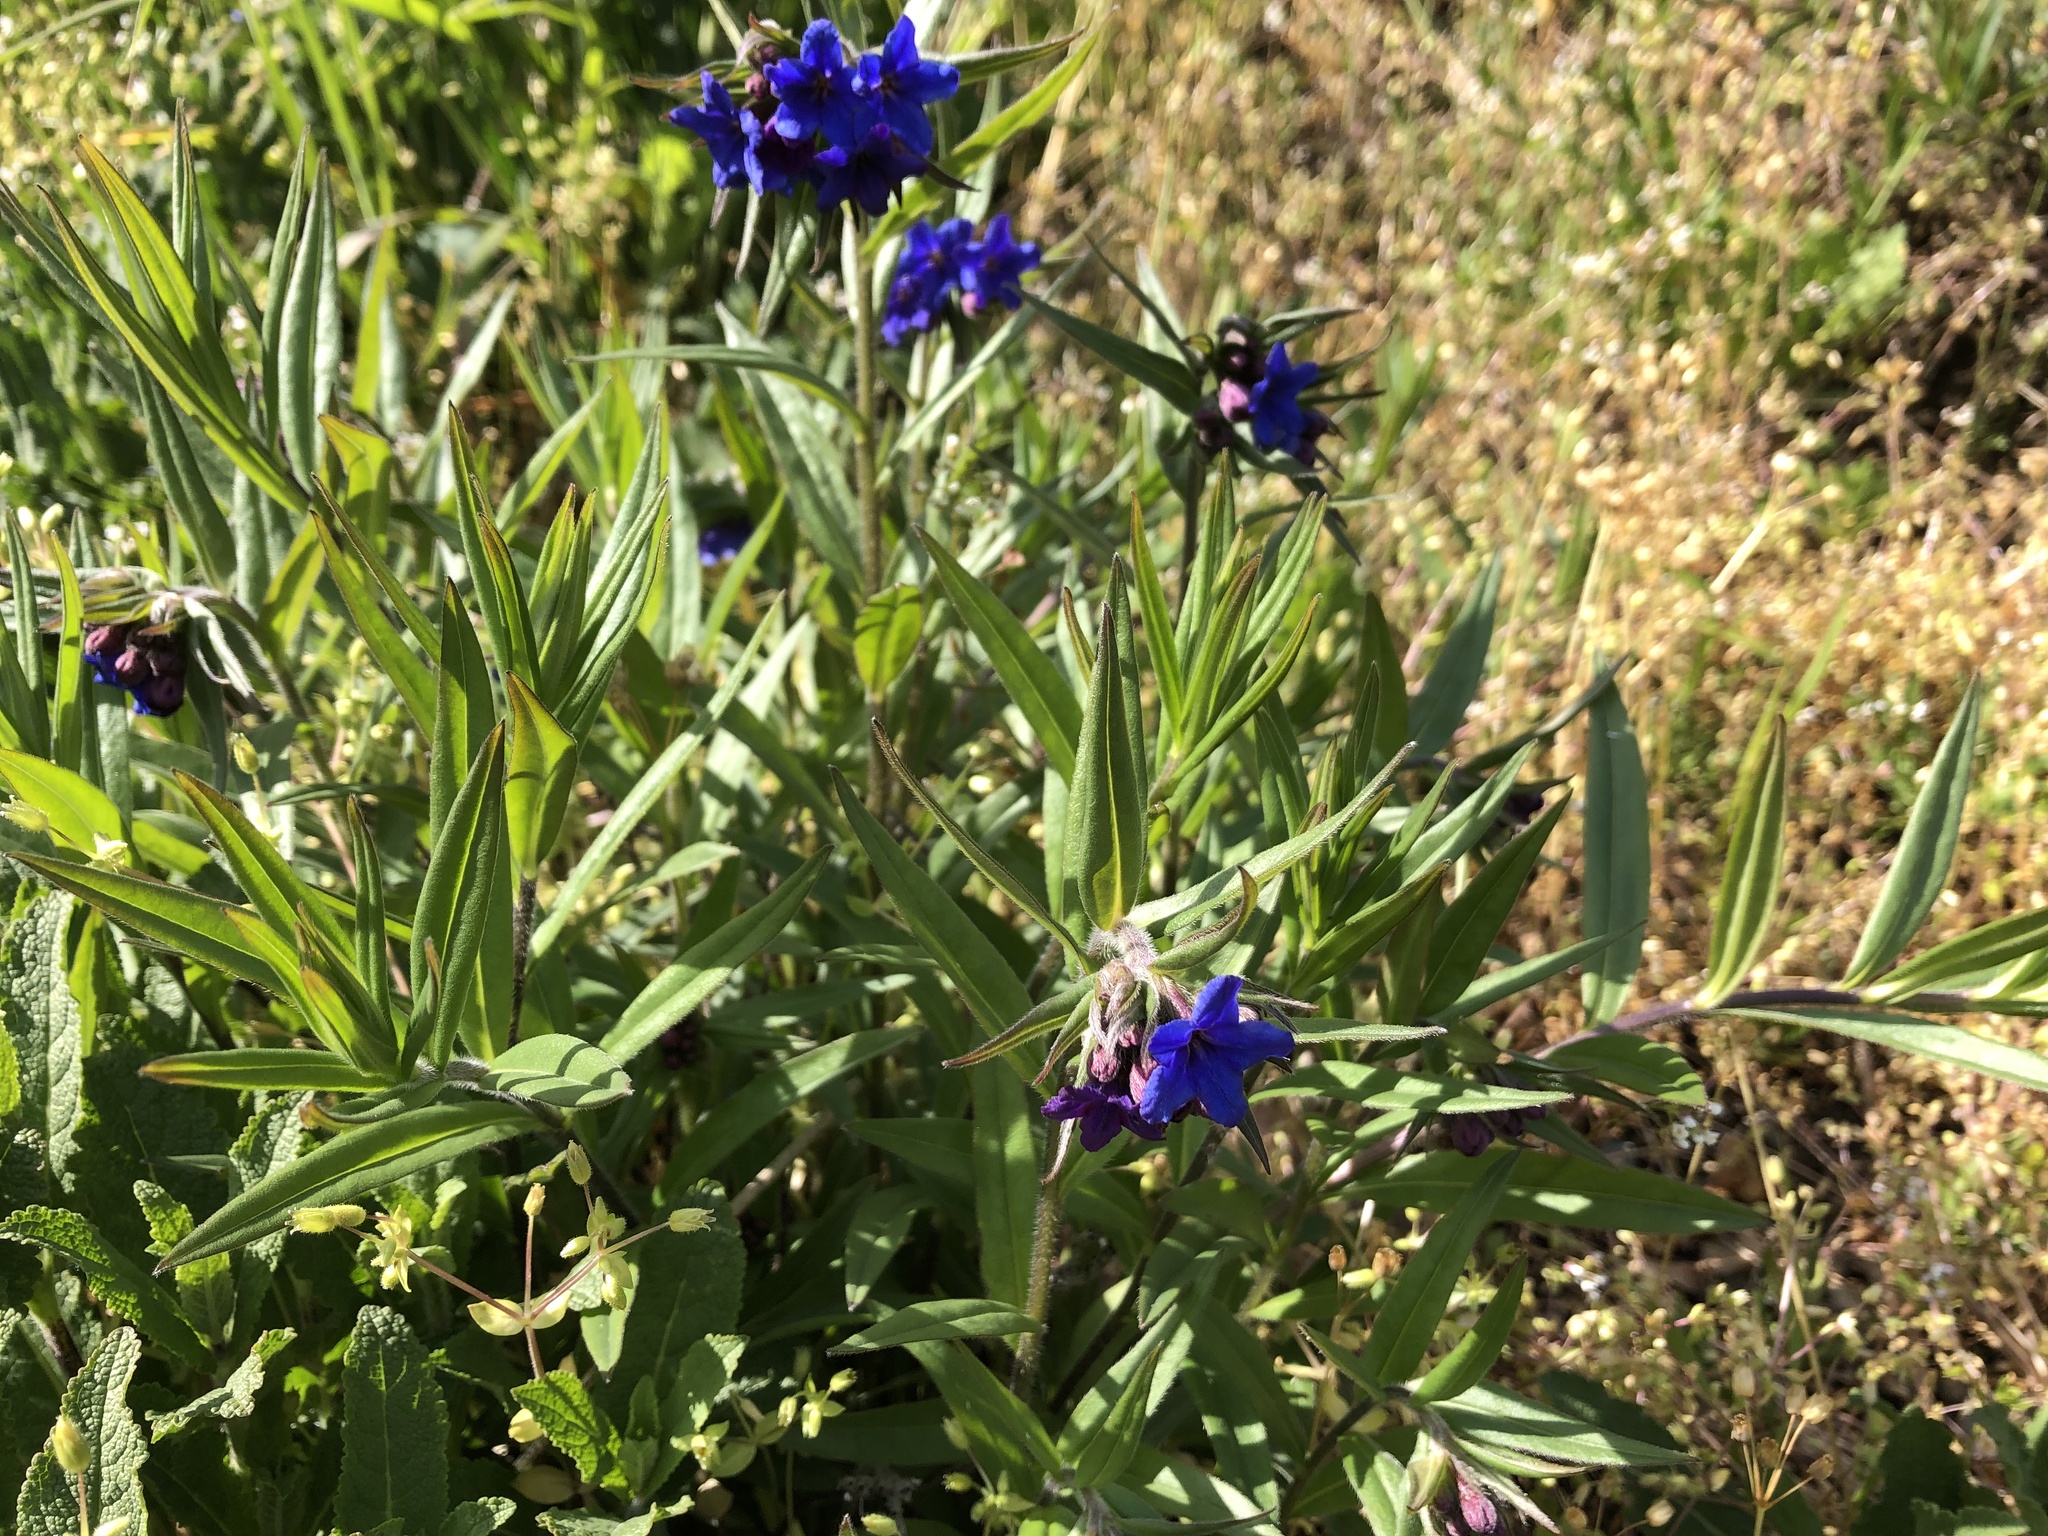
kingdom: Plantae
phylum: Tracheophyta
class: Magnoliopsida
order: Boraginales
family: Boraginaceae
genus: Aegonychon
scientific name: Aegonychon purpurocaeruleum
